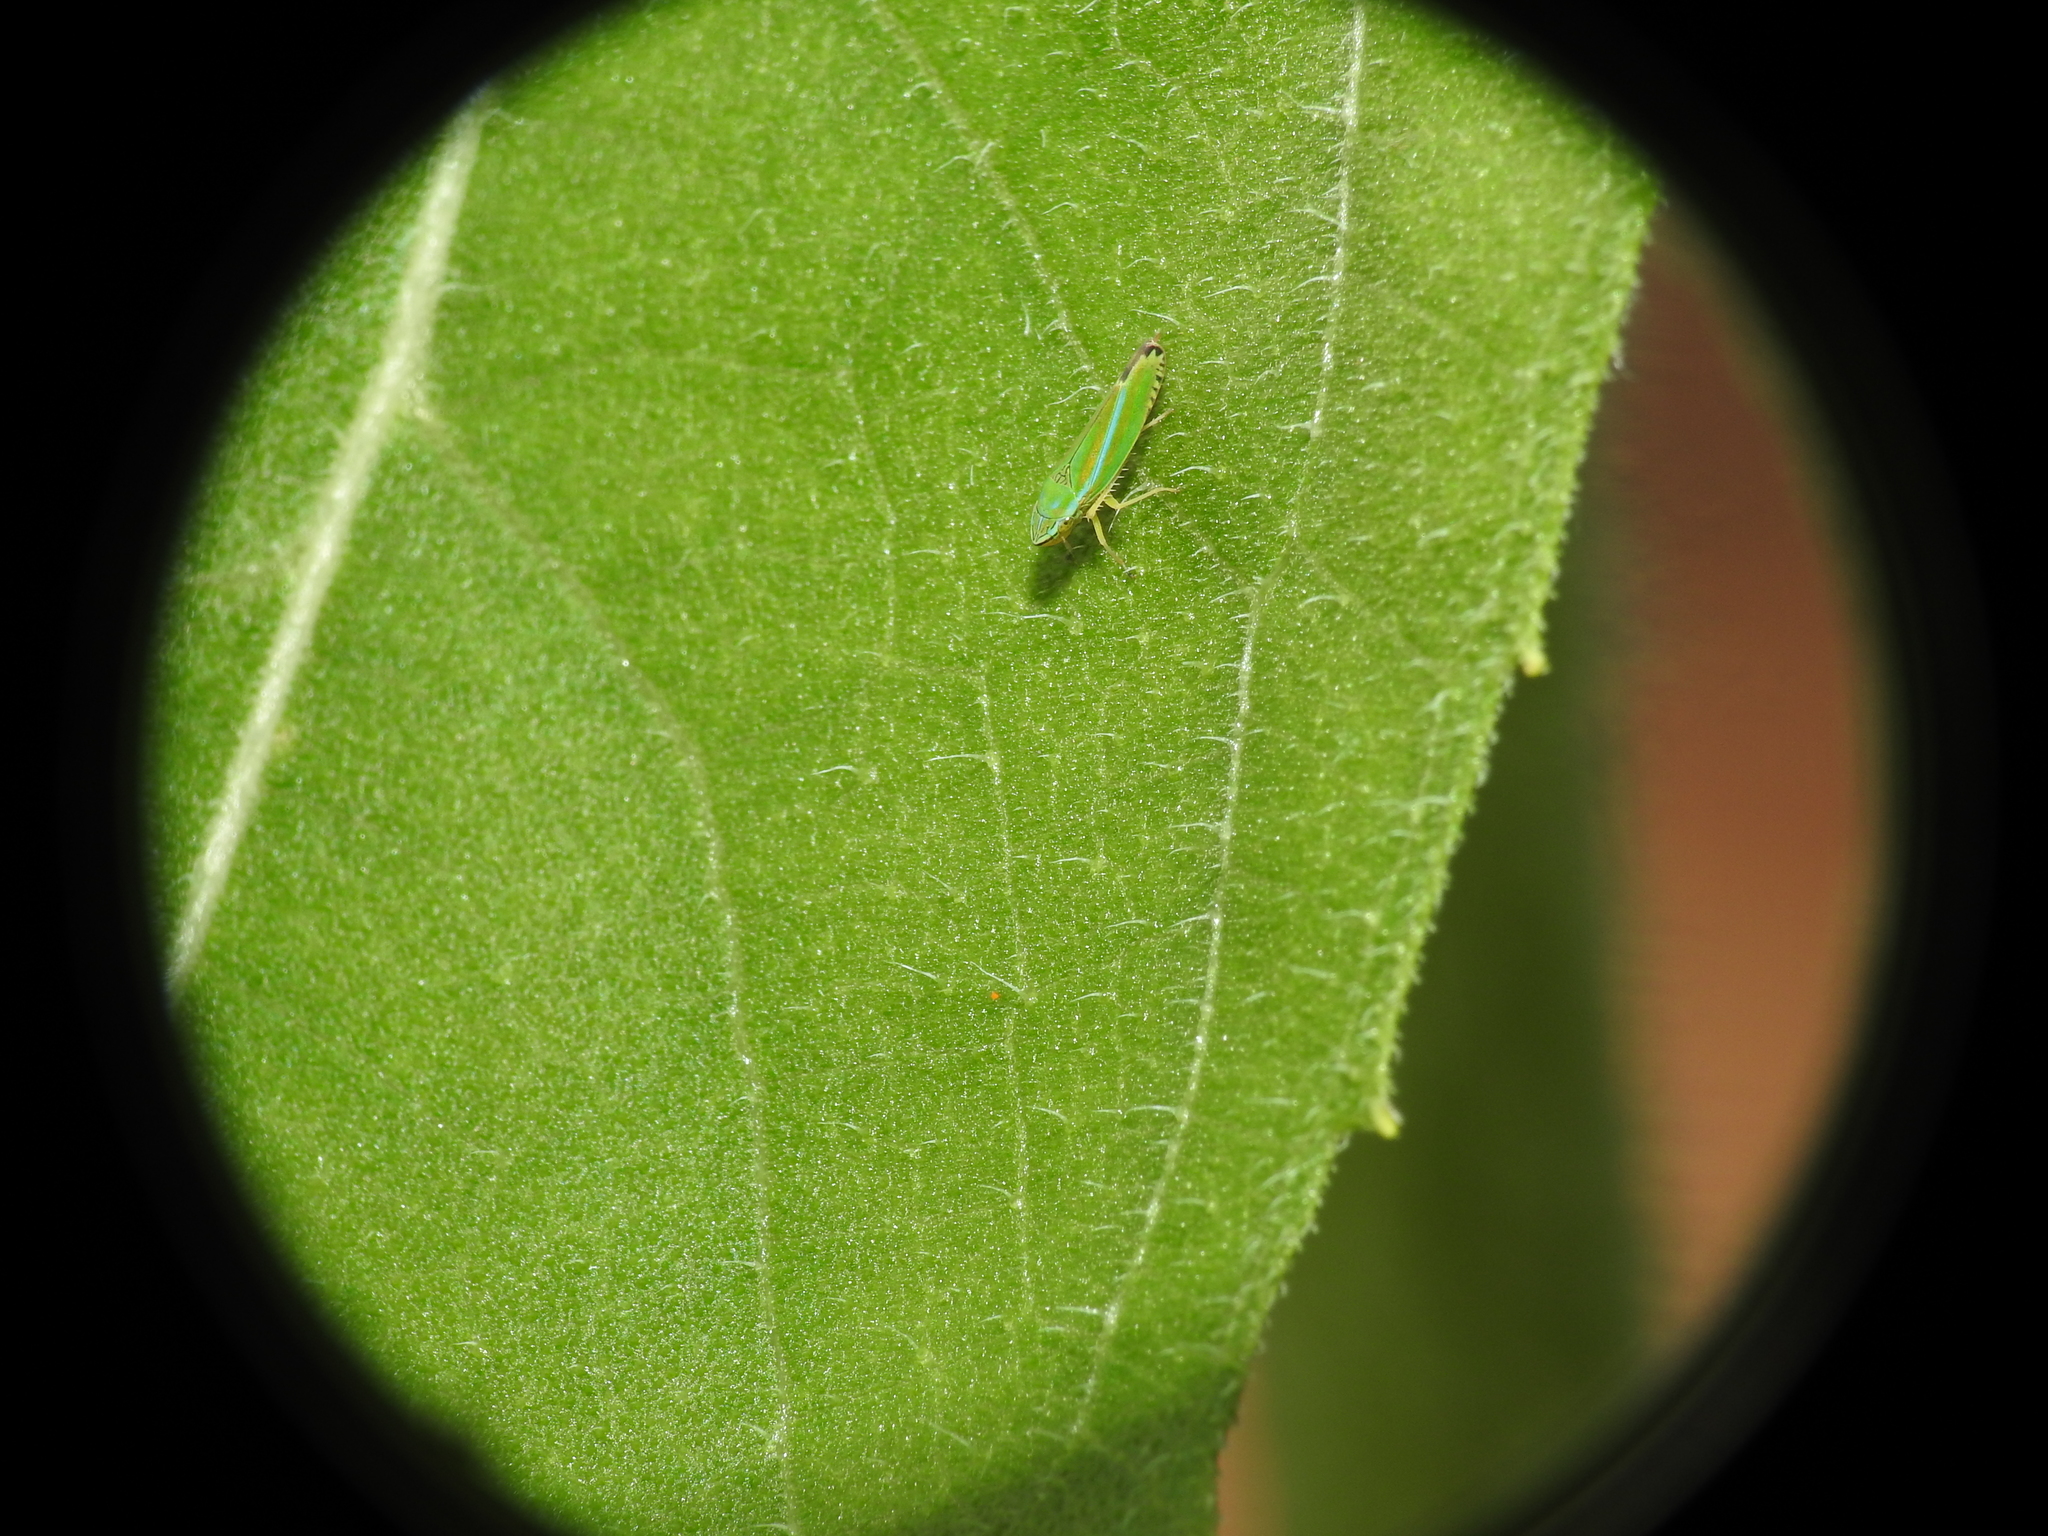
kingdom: Animalia
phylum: Arthropoda
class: Insecta
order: Hemiptera
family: Cicadellidae
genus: Graphocephala
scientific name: Graphocephala versuta
